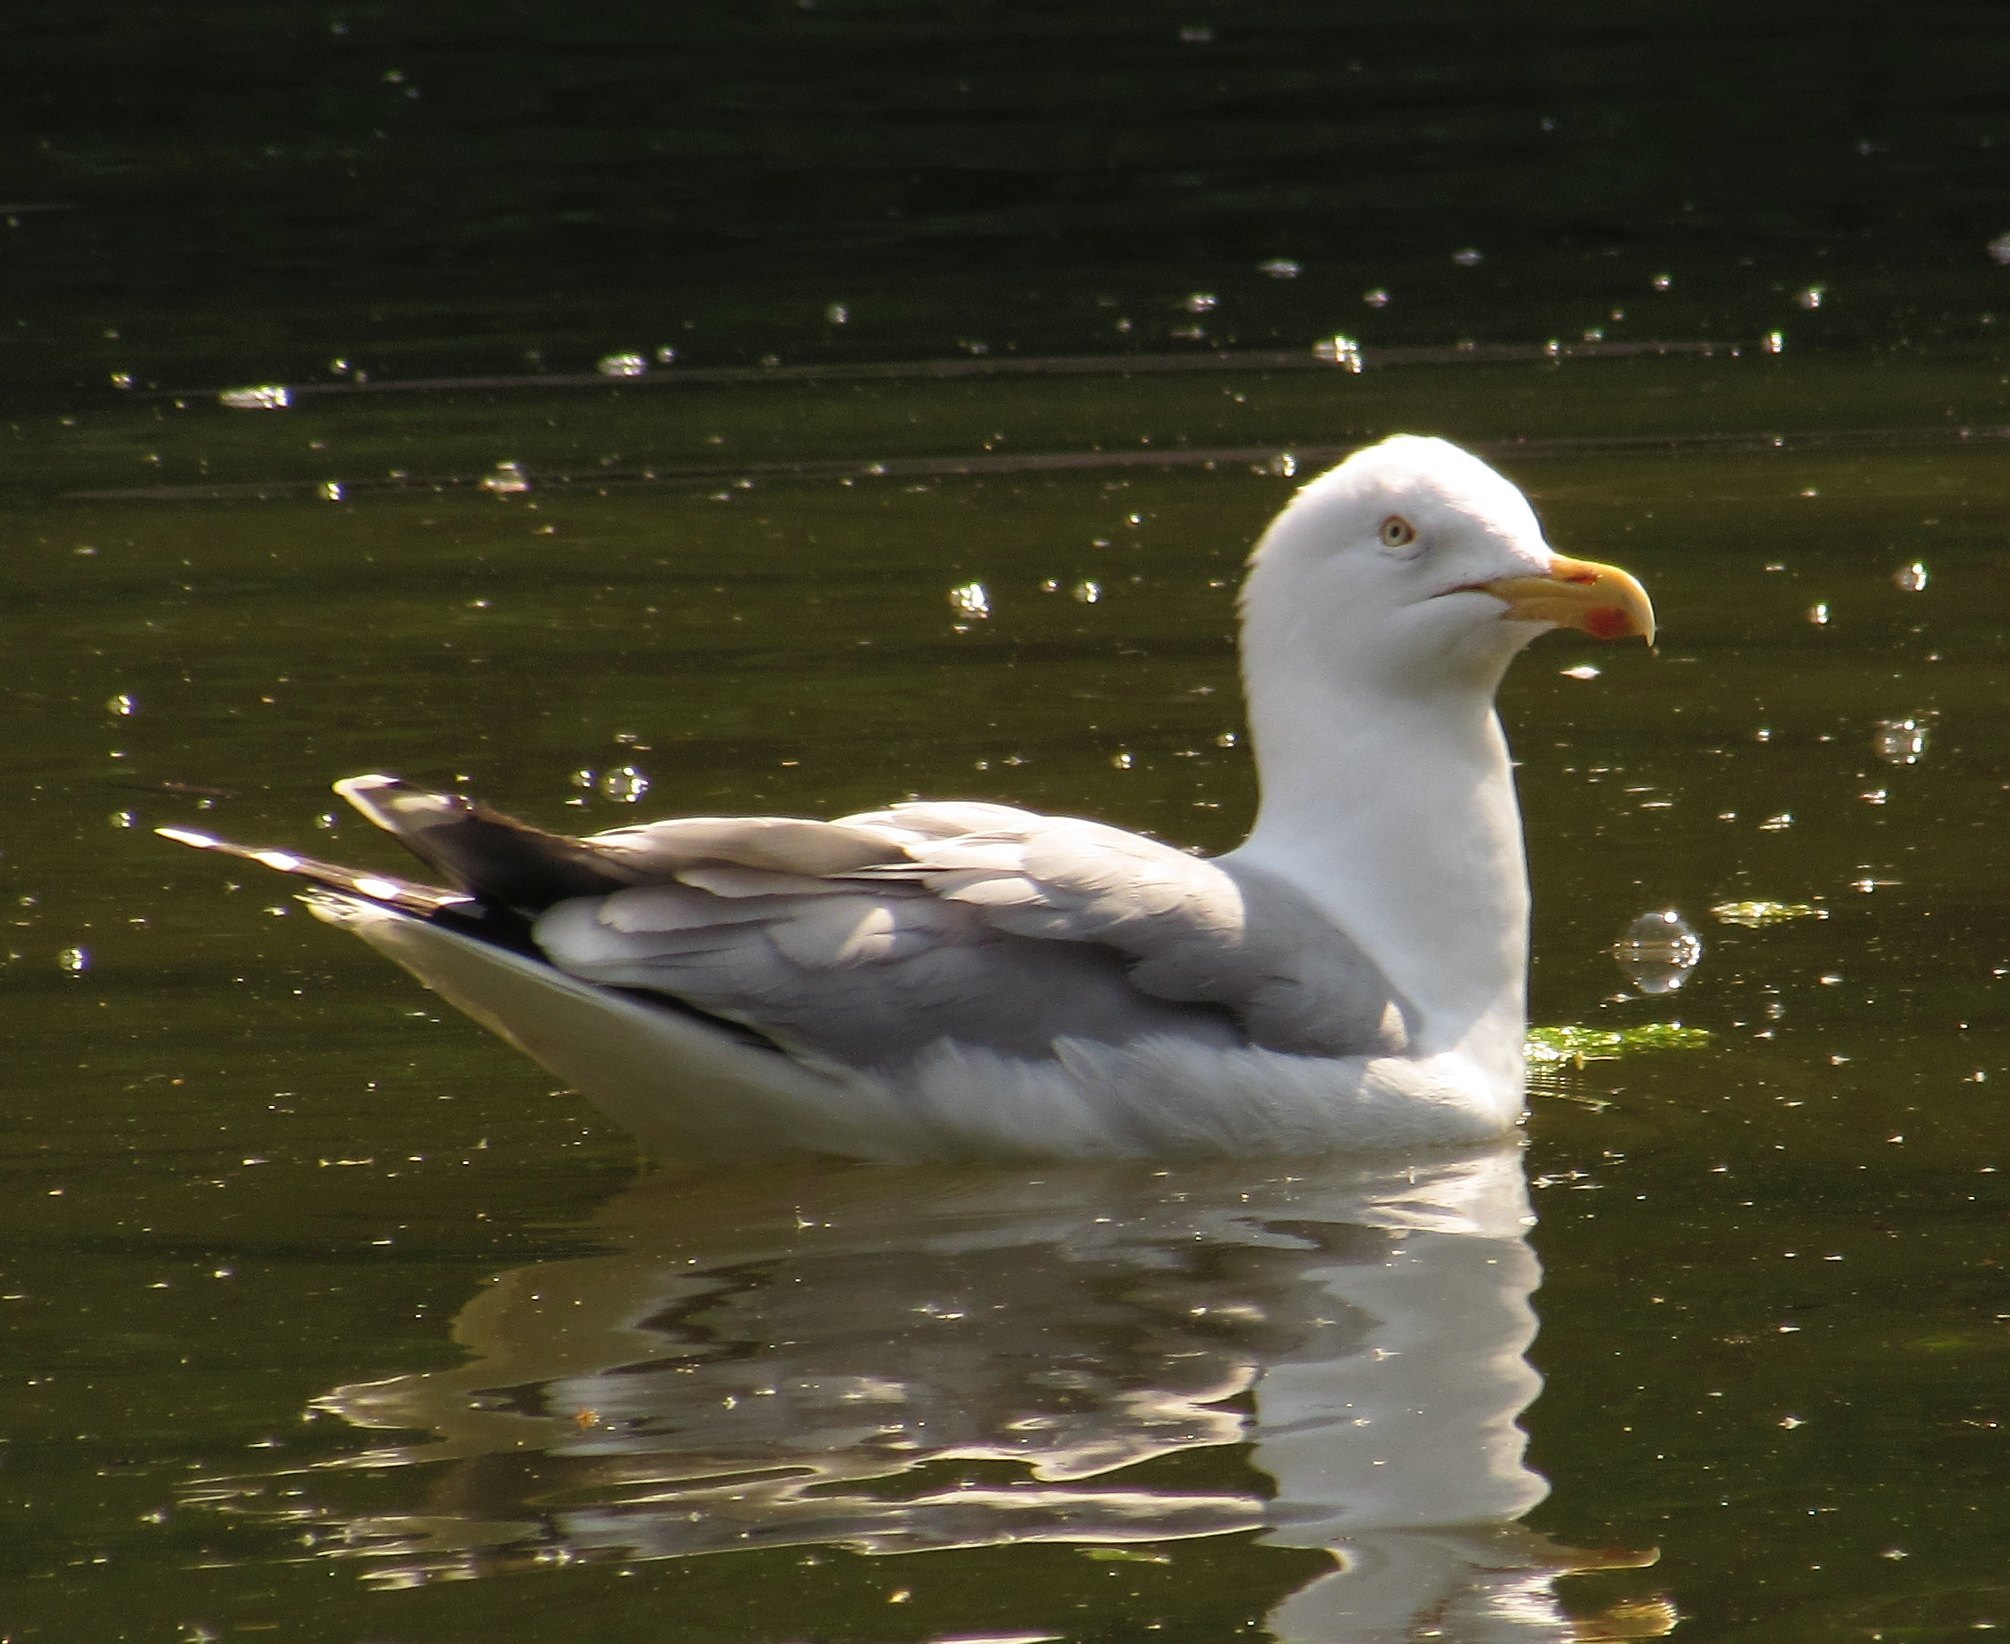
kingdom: Animalia
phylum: Chordata
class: Aves
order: Charadriiformes
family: Laridae
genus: Larus
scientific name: Larus argentatus
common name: Herring gull
